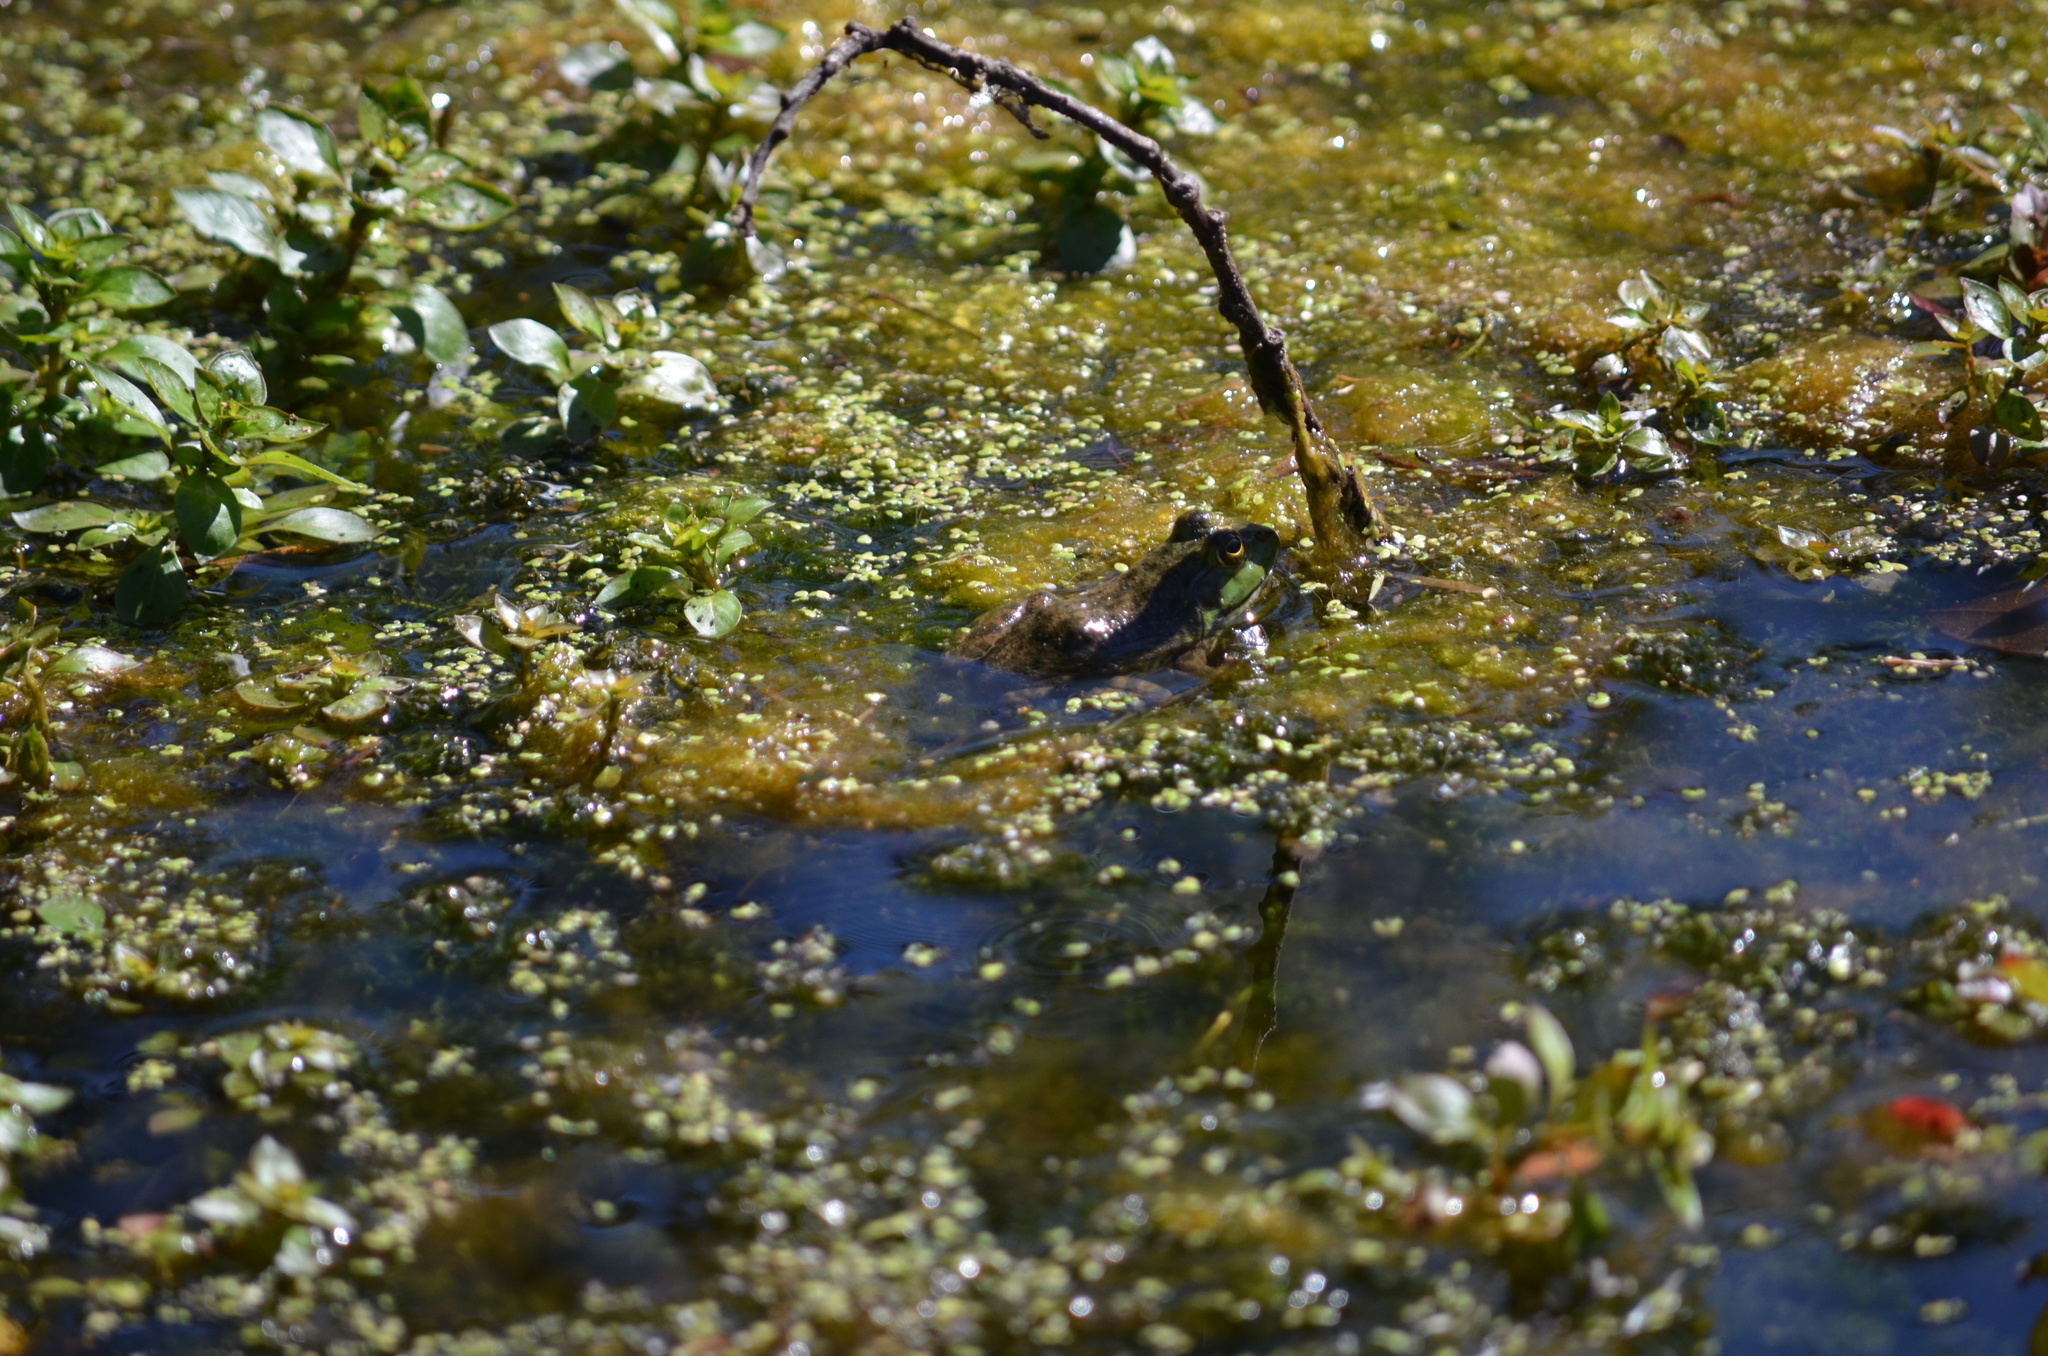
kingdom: Animalia
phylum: Chordata
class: Amphibia
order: Anura
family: Ranidae
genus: Lithobates
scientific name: Lithobates catesbeianus
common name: American bullfrog
